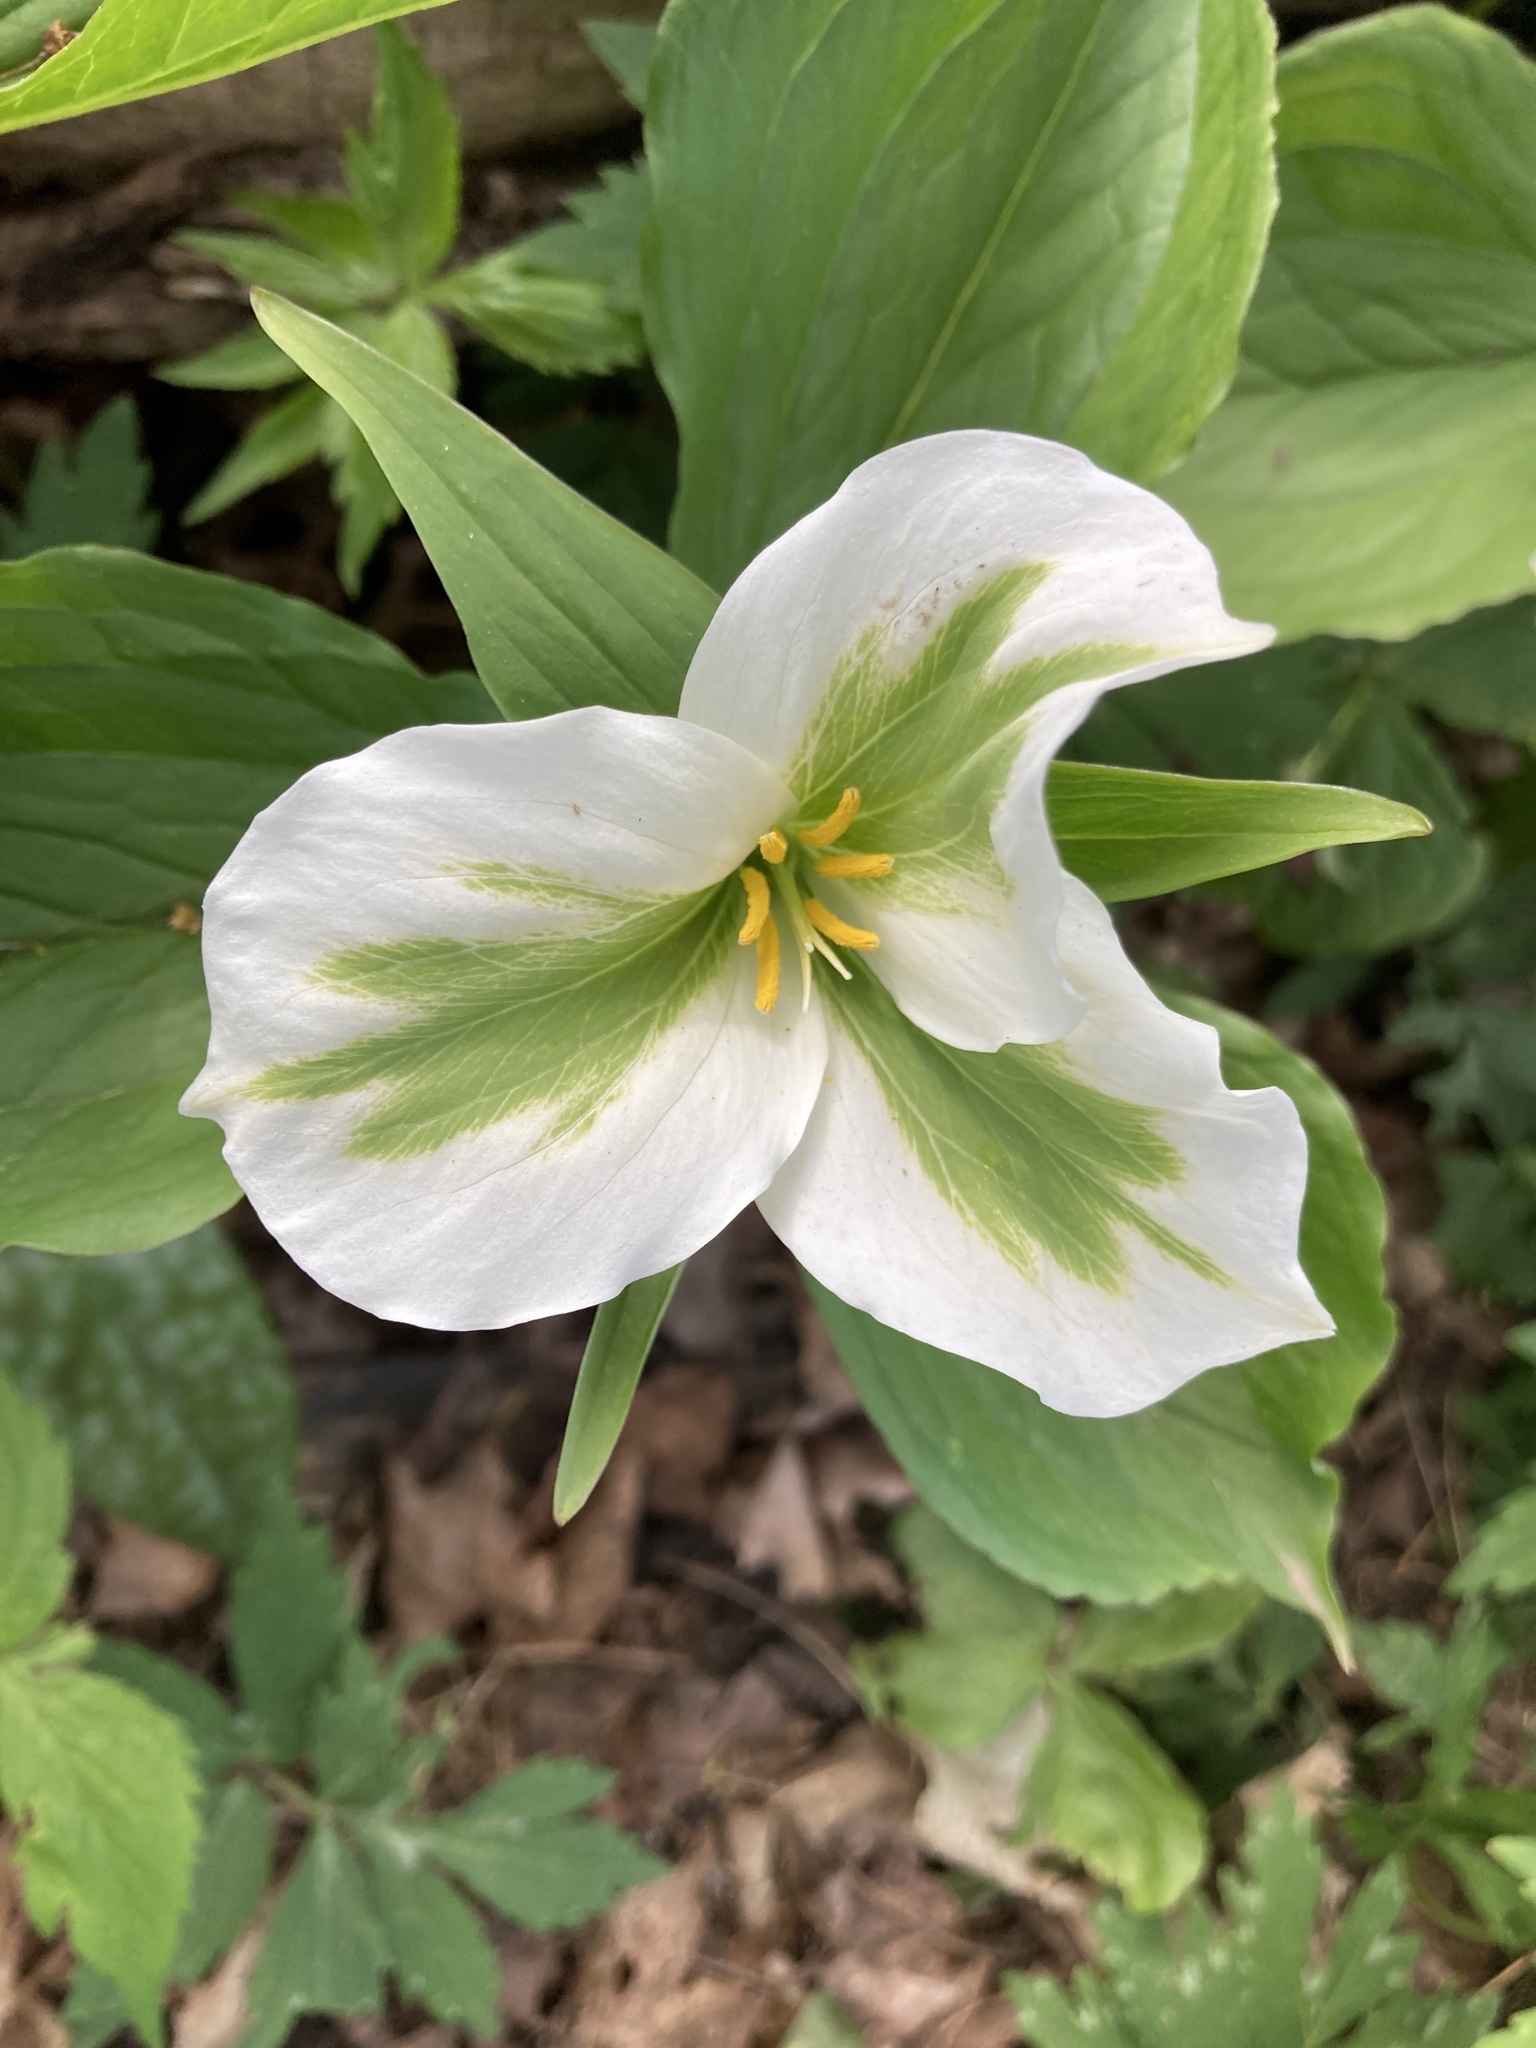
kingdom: Plantae
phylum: Tracheophyta
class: Liliopsida
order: Liliales
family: Melanthiaceae
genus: Trillium
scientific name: Trillium grandiflorum
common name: Great white trillium
